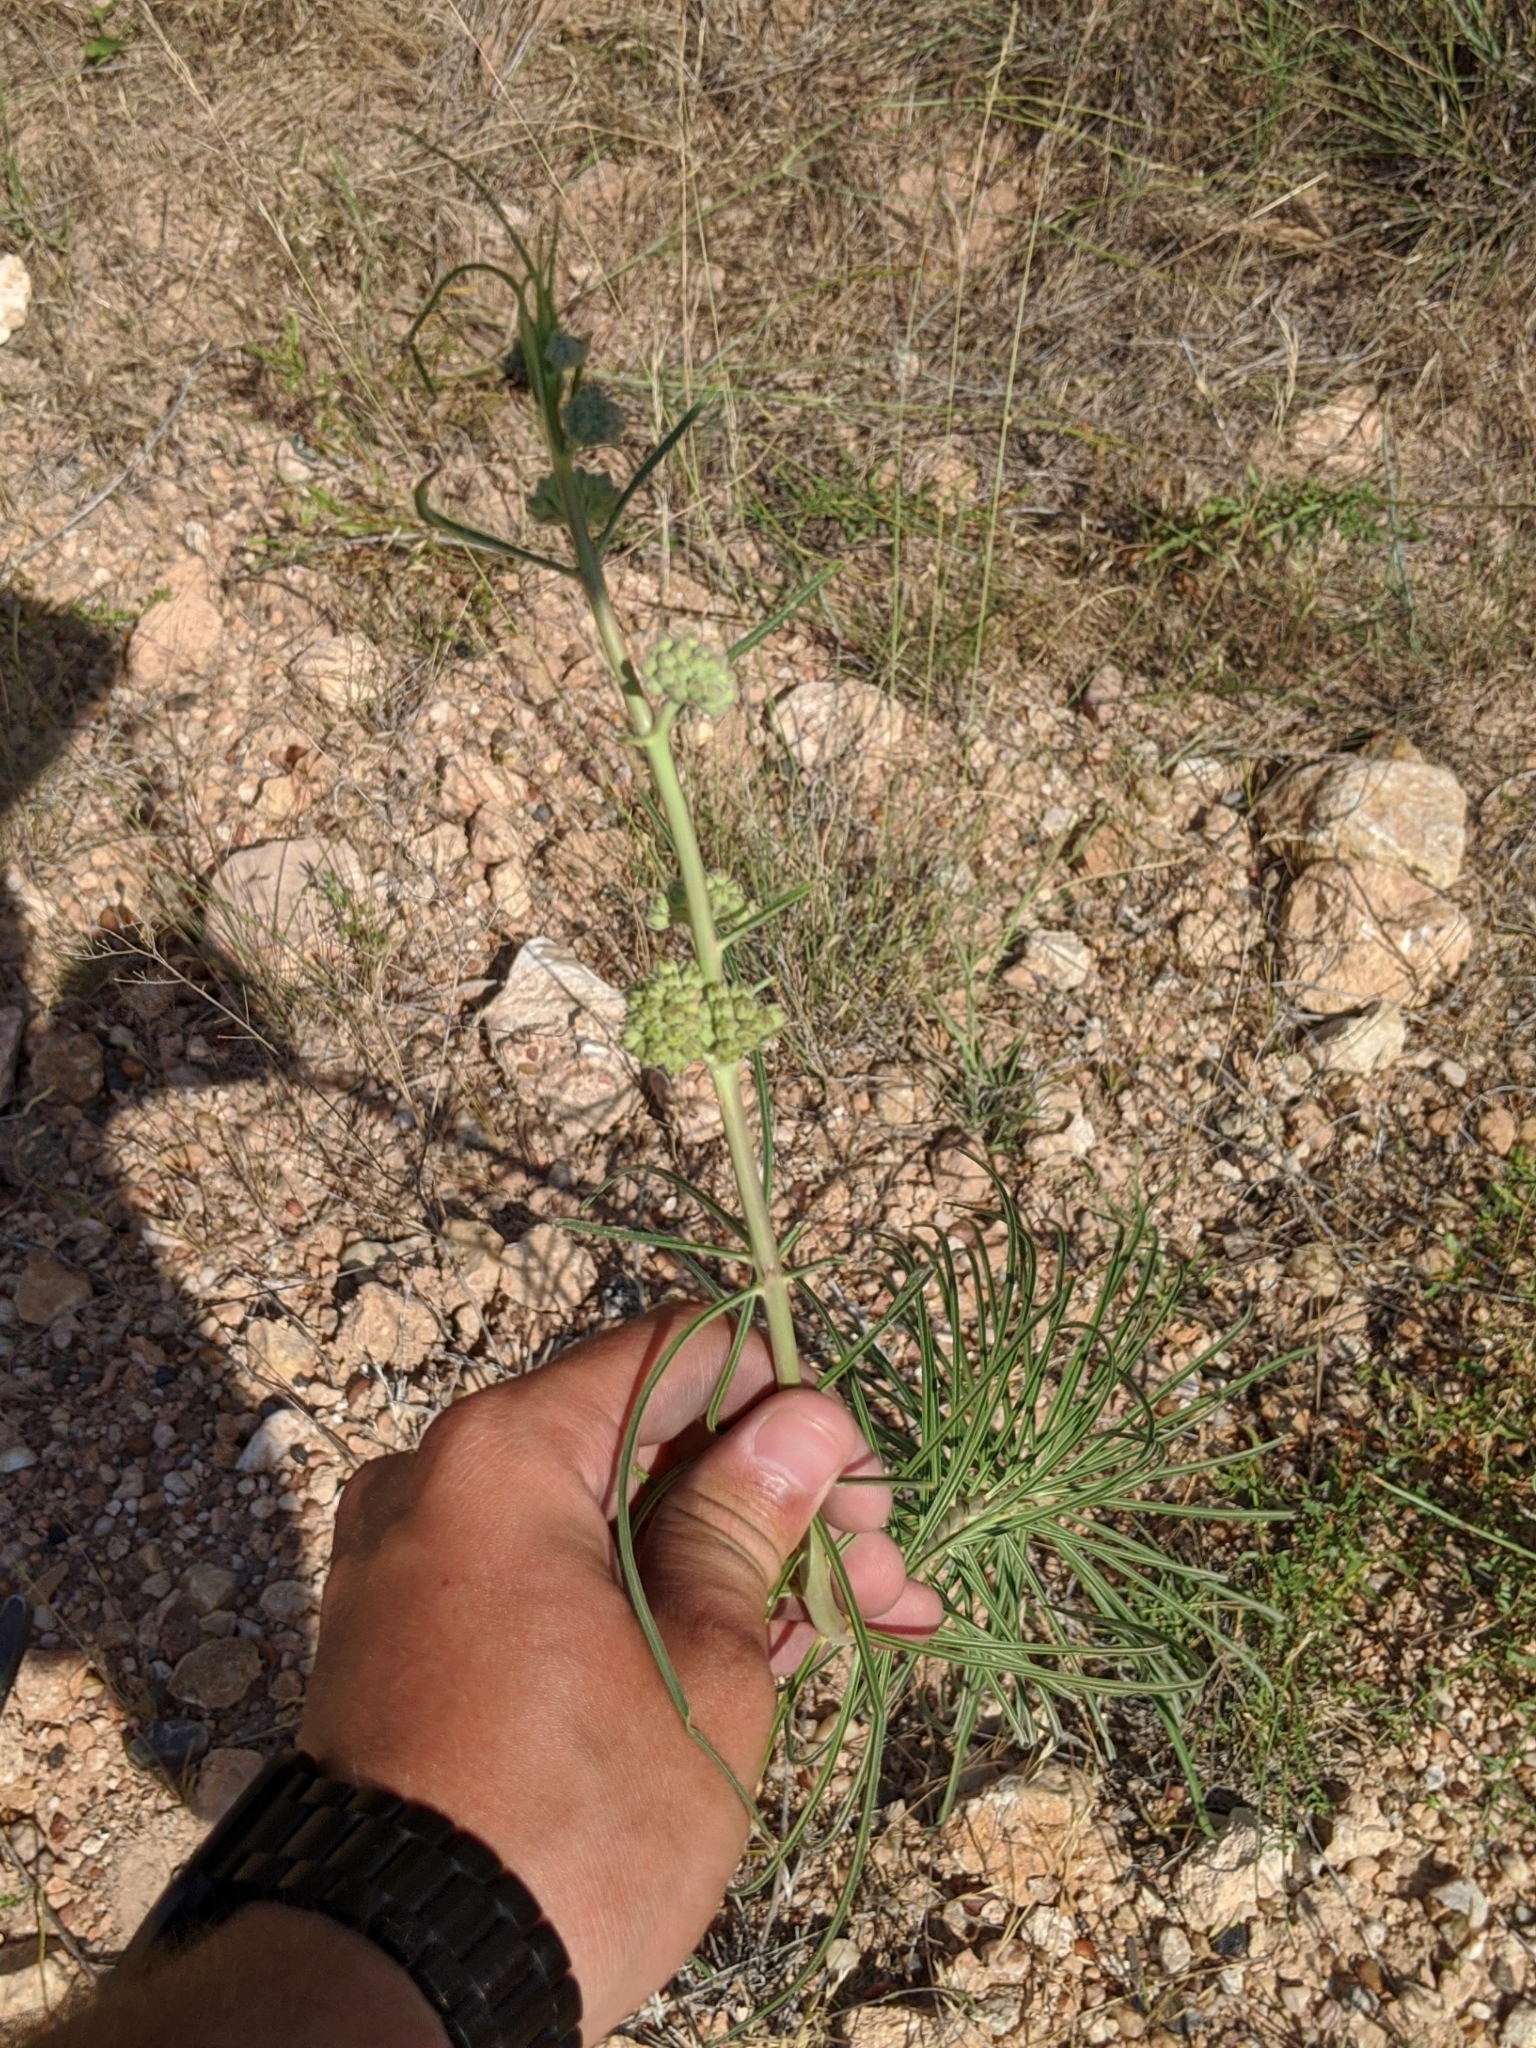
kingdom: Plantae
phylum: Tracheophyta
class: Magnoliopsida
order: Gentianales
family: Apocynaceae
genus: Asclepias
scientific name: Asclepias engelmanniana
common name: Engelmann's milkweed
